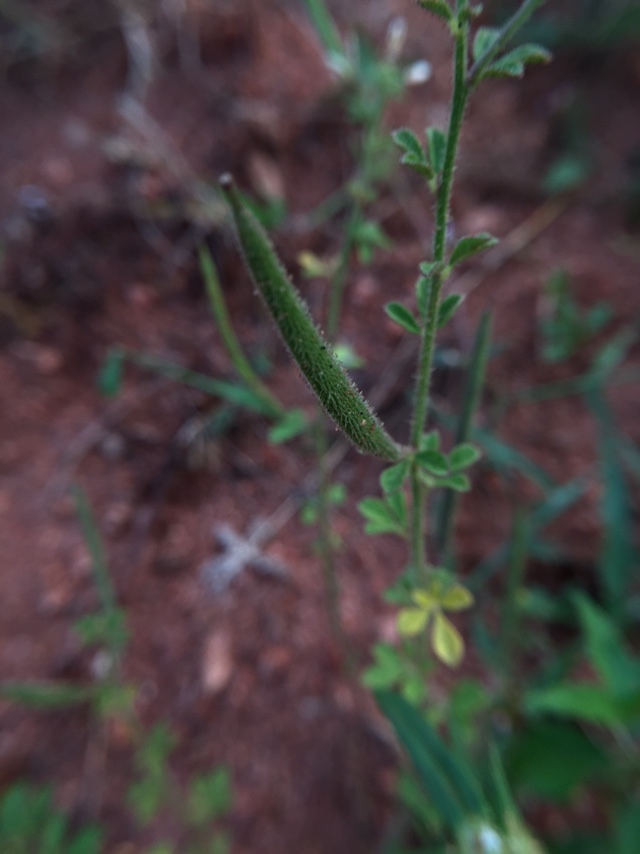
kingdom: Plantae
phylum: Tracheophyta
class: Magnoliopsida
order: Brassicales
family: Cleomaceae
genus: Arivela
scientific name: Arivela viscosa
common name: Asian spiderflower
